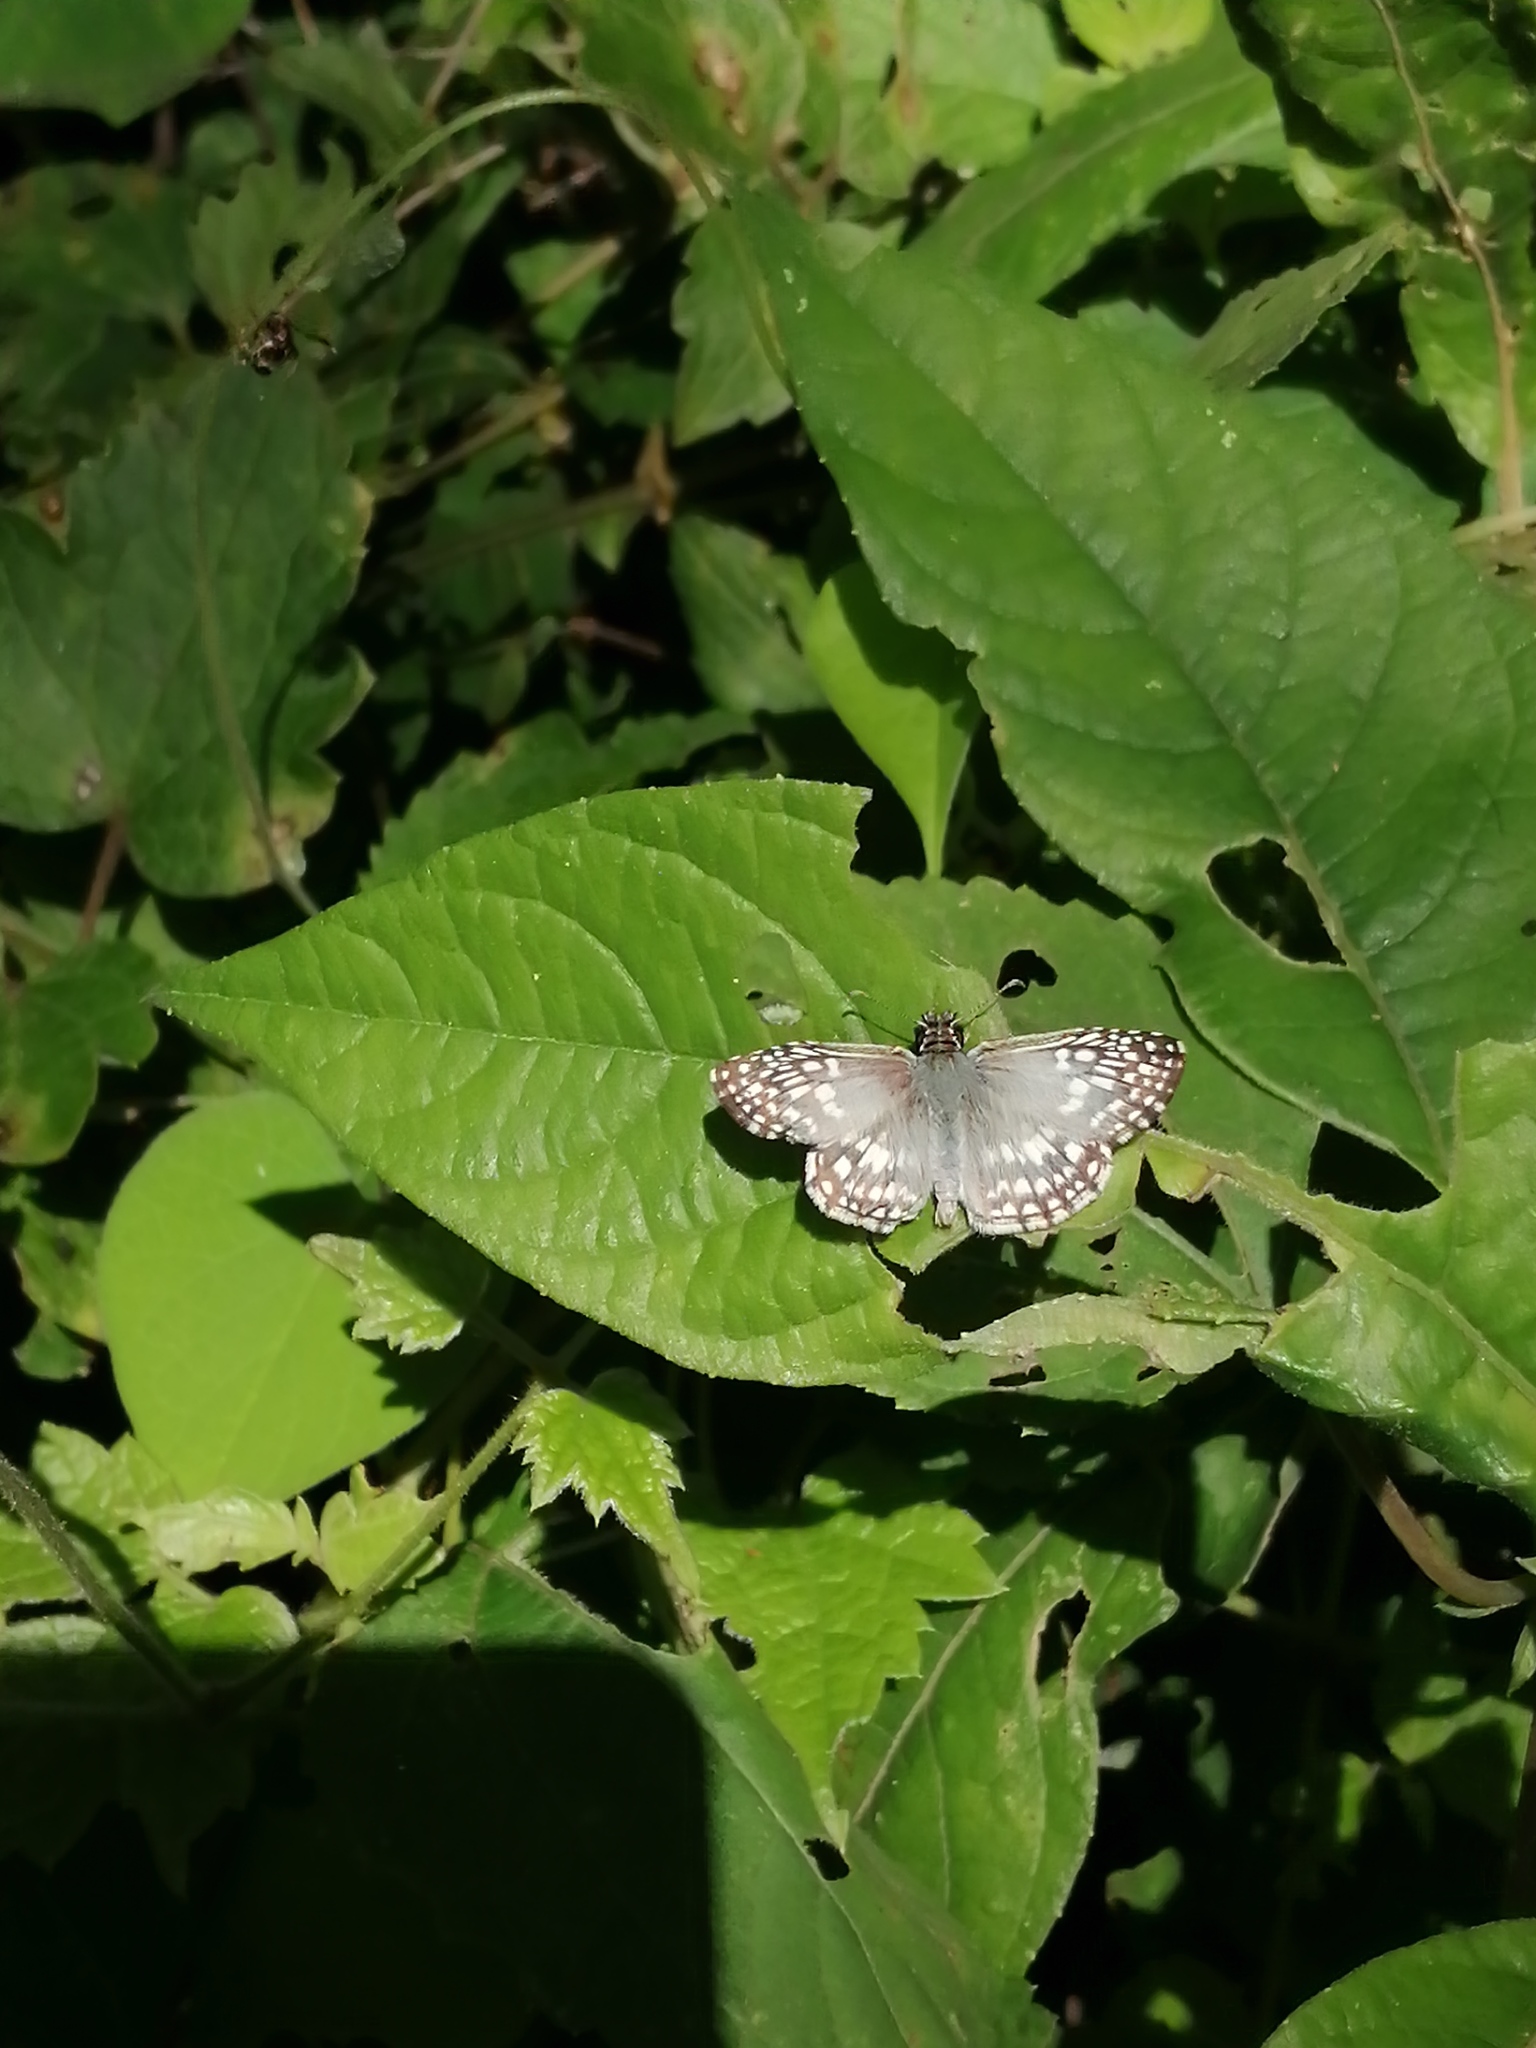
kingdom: Animalia
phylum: Arthropoda
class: Insecta
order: Lepidoptera
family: Hesperiidae
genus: Pyrgus
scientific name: Pyrgus oileus
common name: Tropical checkered-skipper
